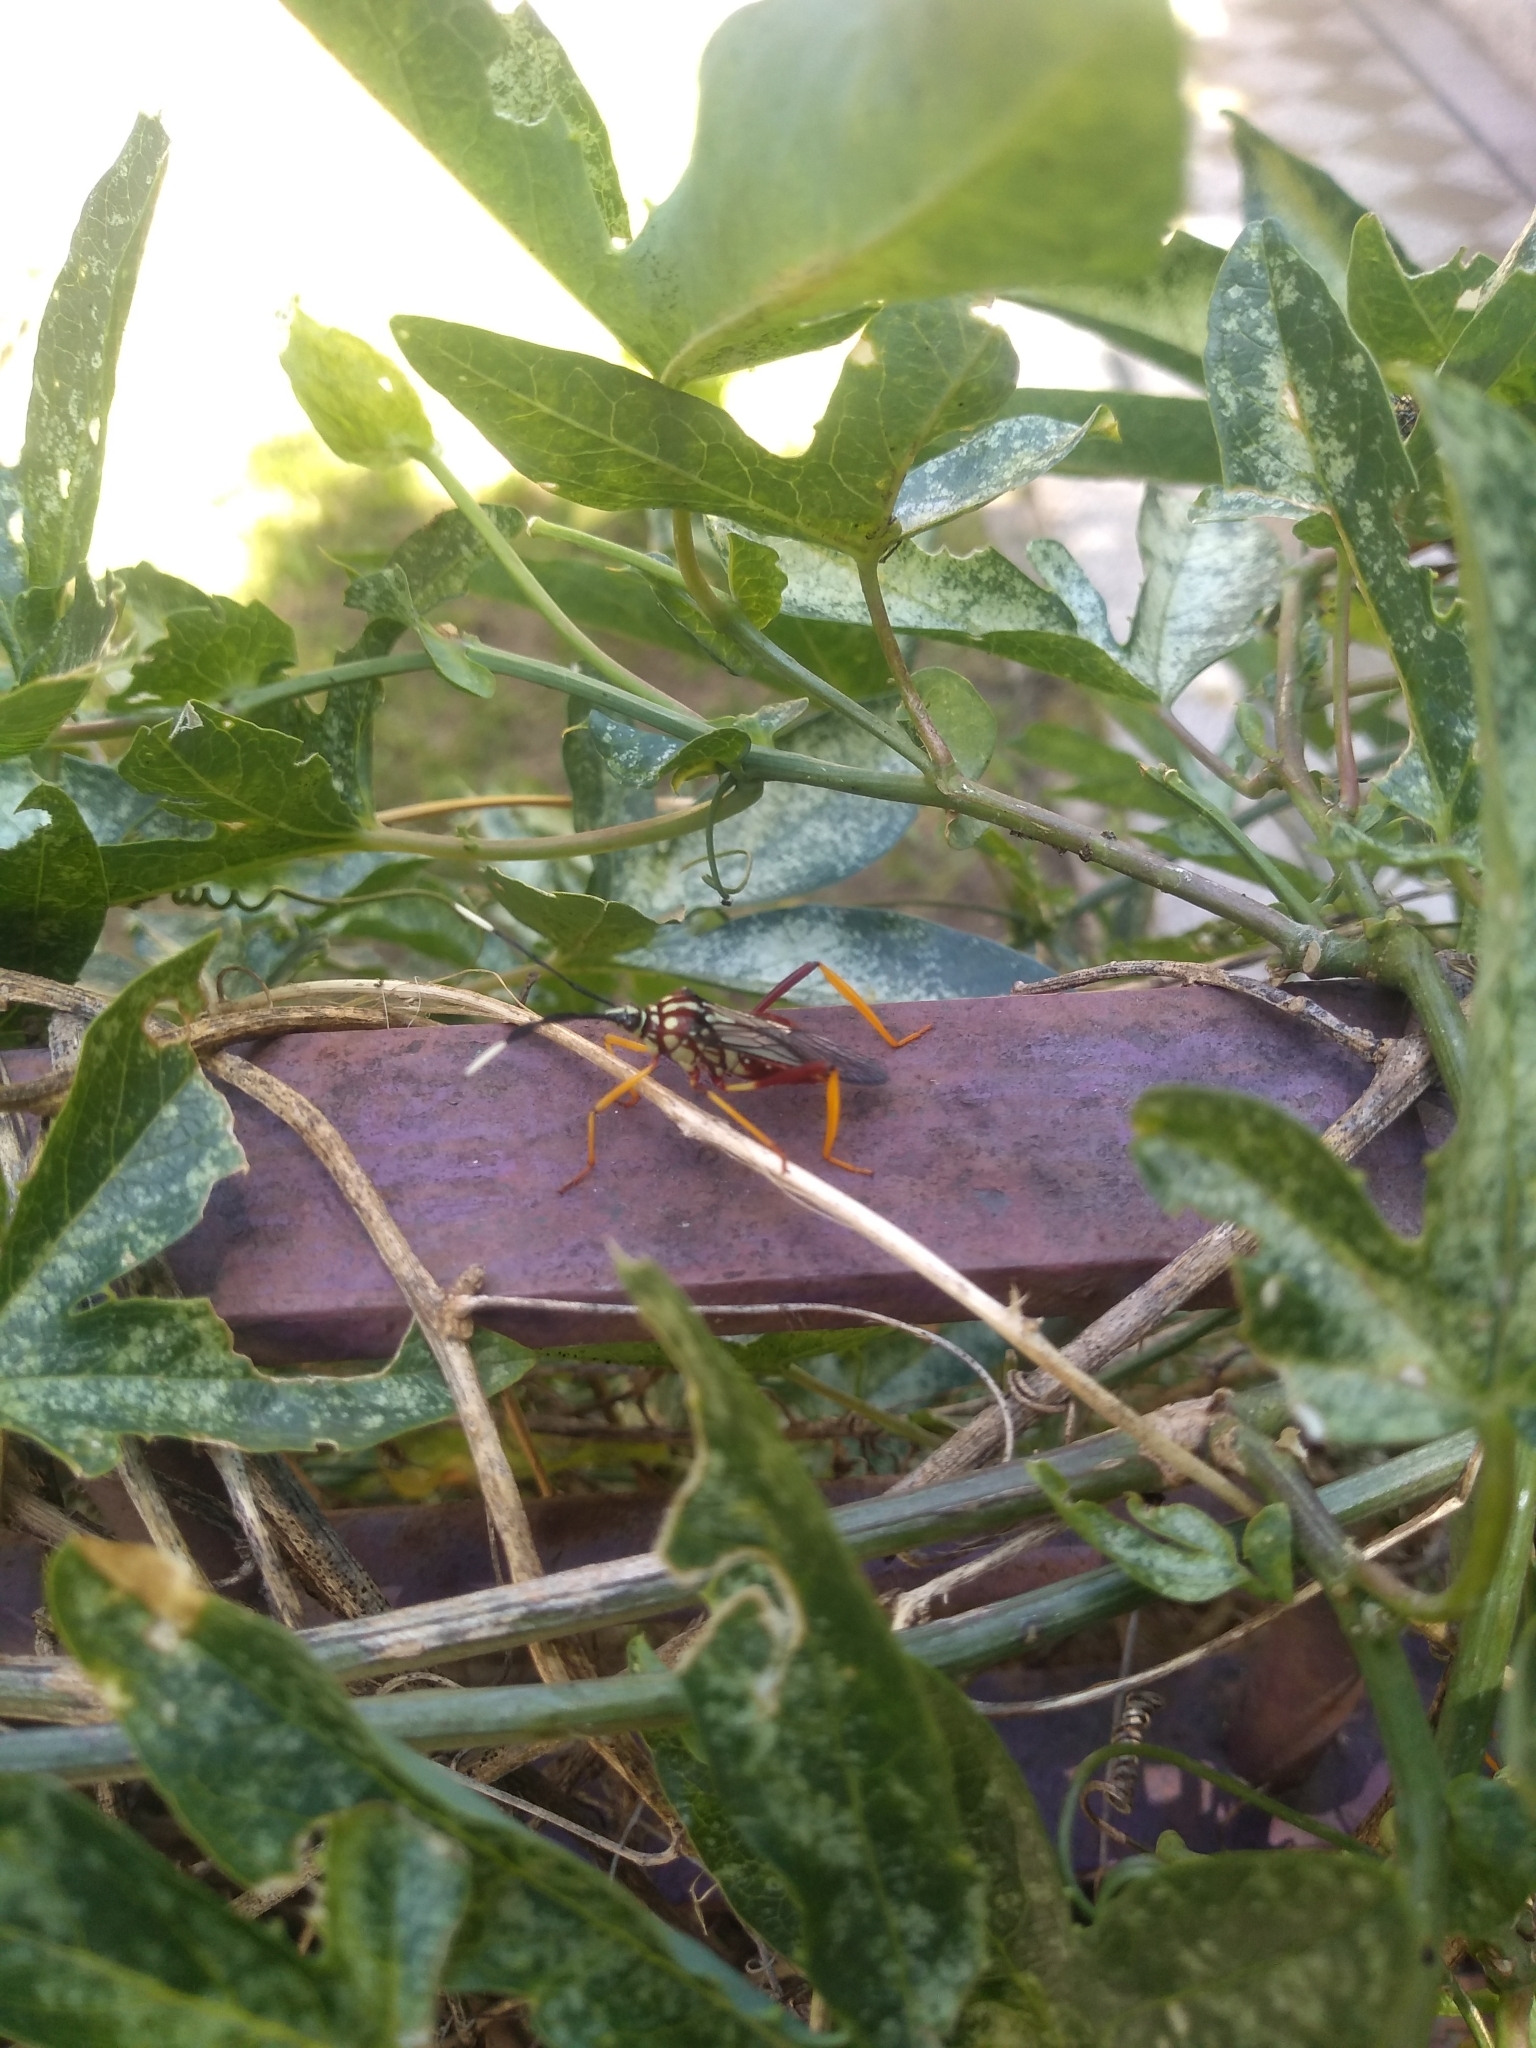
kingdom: Animalia
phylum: Arthropoda
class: Insecta
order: Hemiptera
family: Coreidae
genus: Holhymenia
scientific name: Holhymenia histrio
